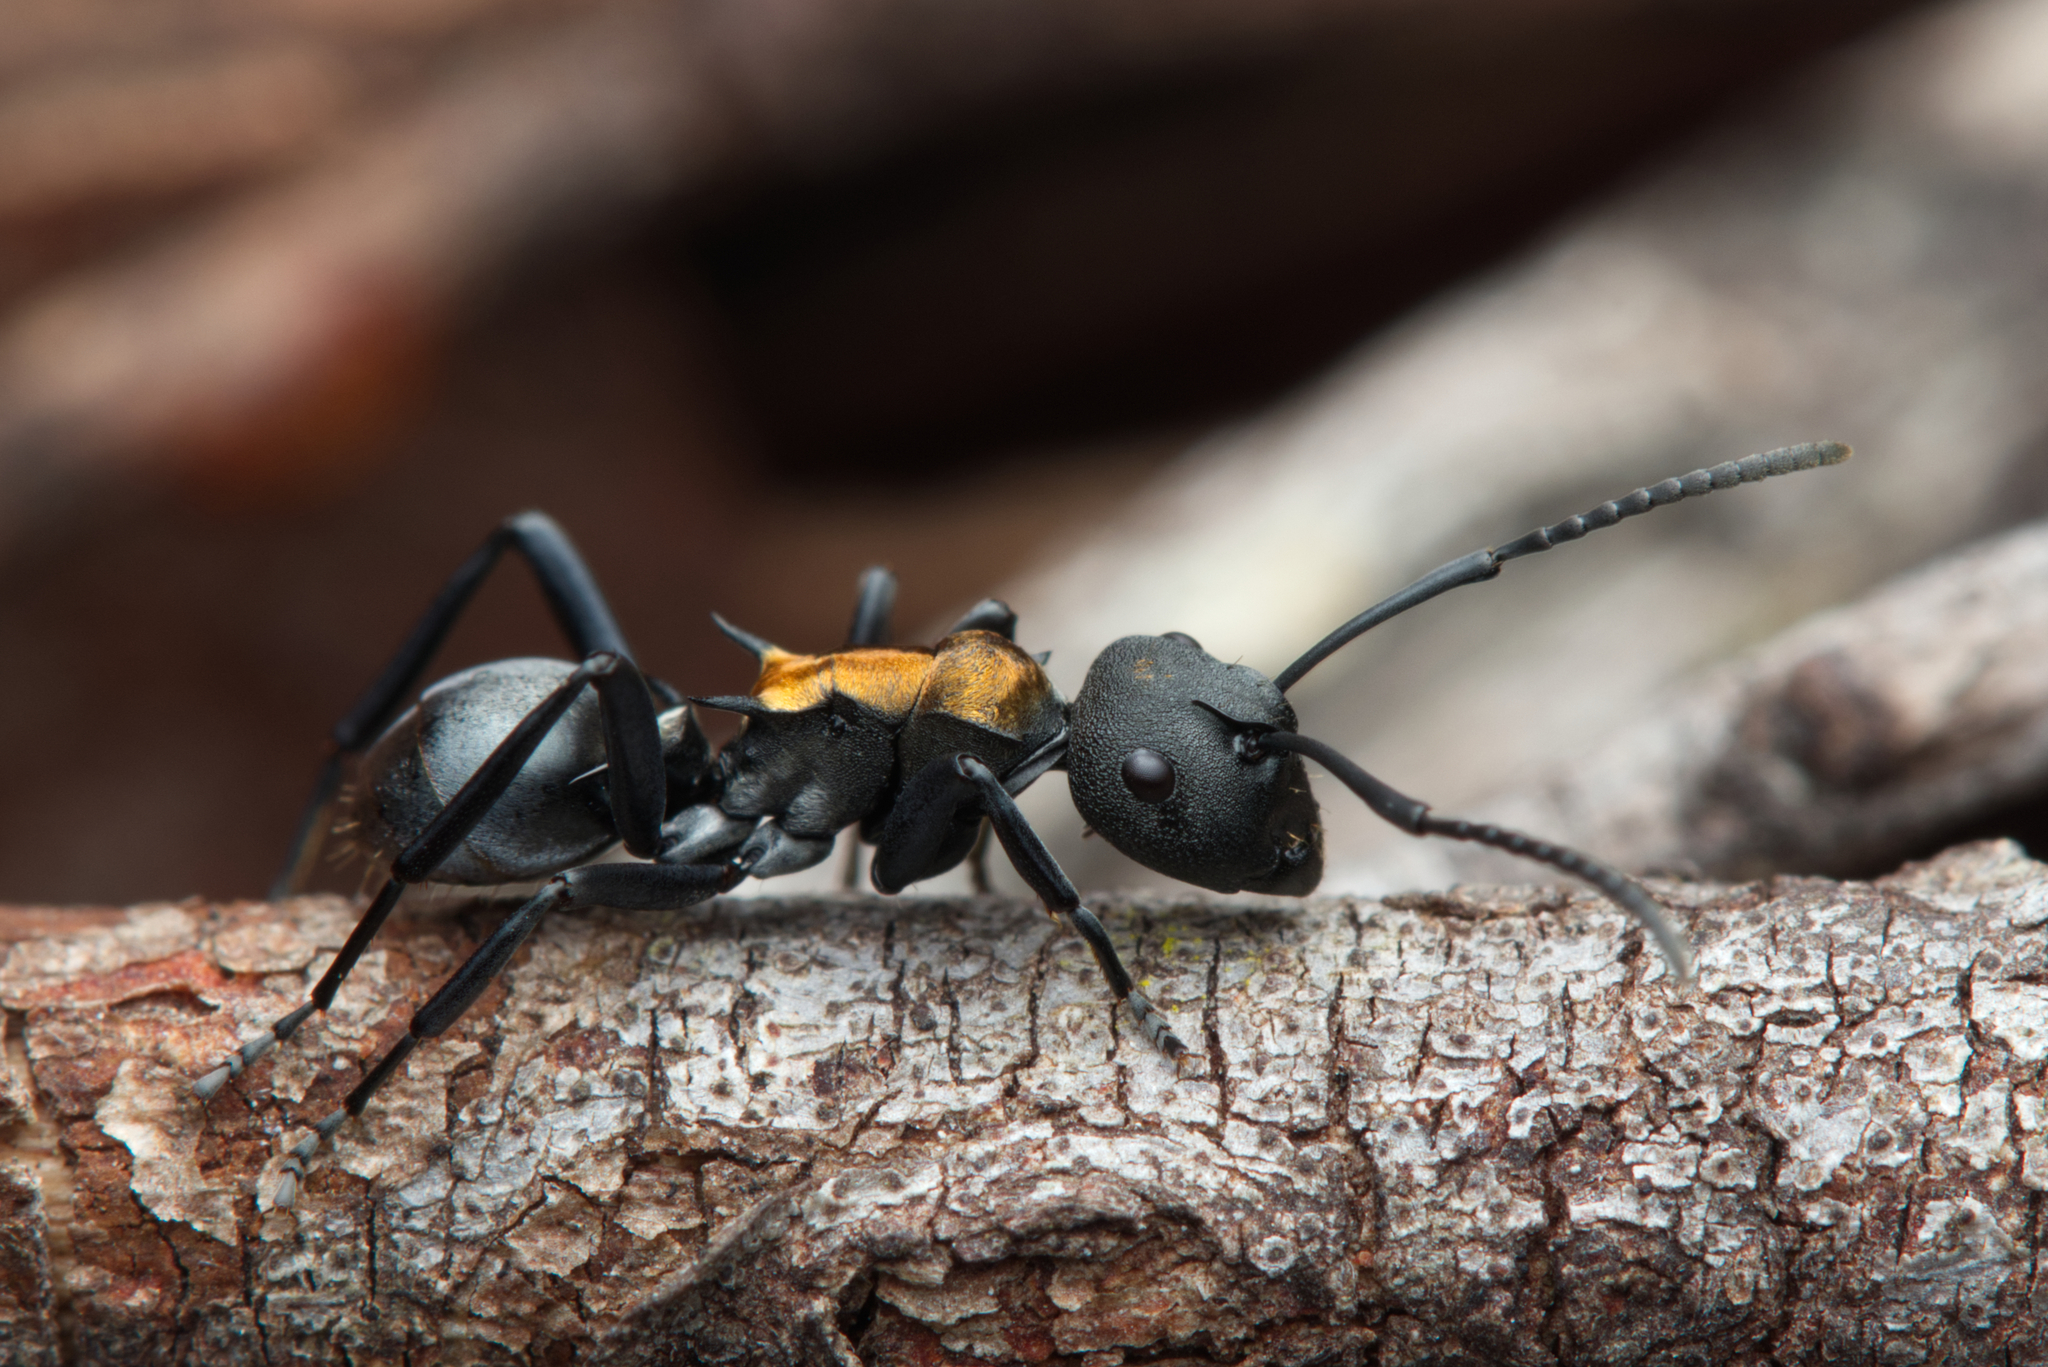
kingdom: Animalia
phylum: Arthropoda
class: Insecta
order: Hymenoptera
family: Formicidae
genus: Polyrhachis
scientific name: Polyrhachis ornata
